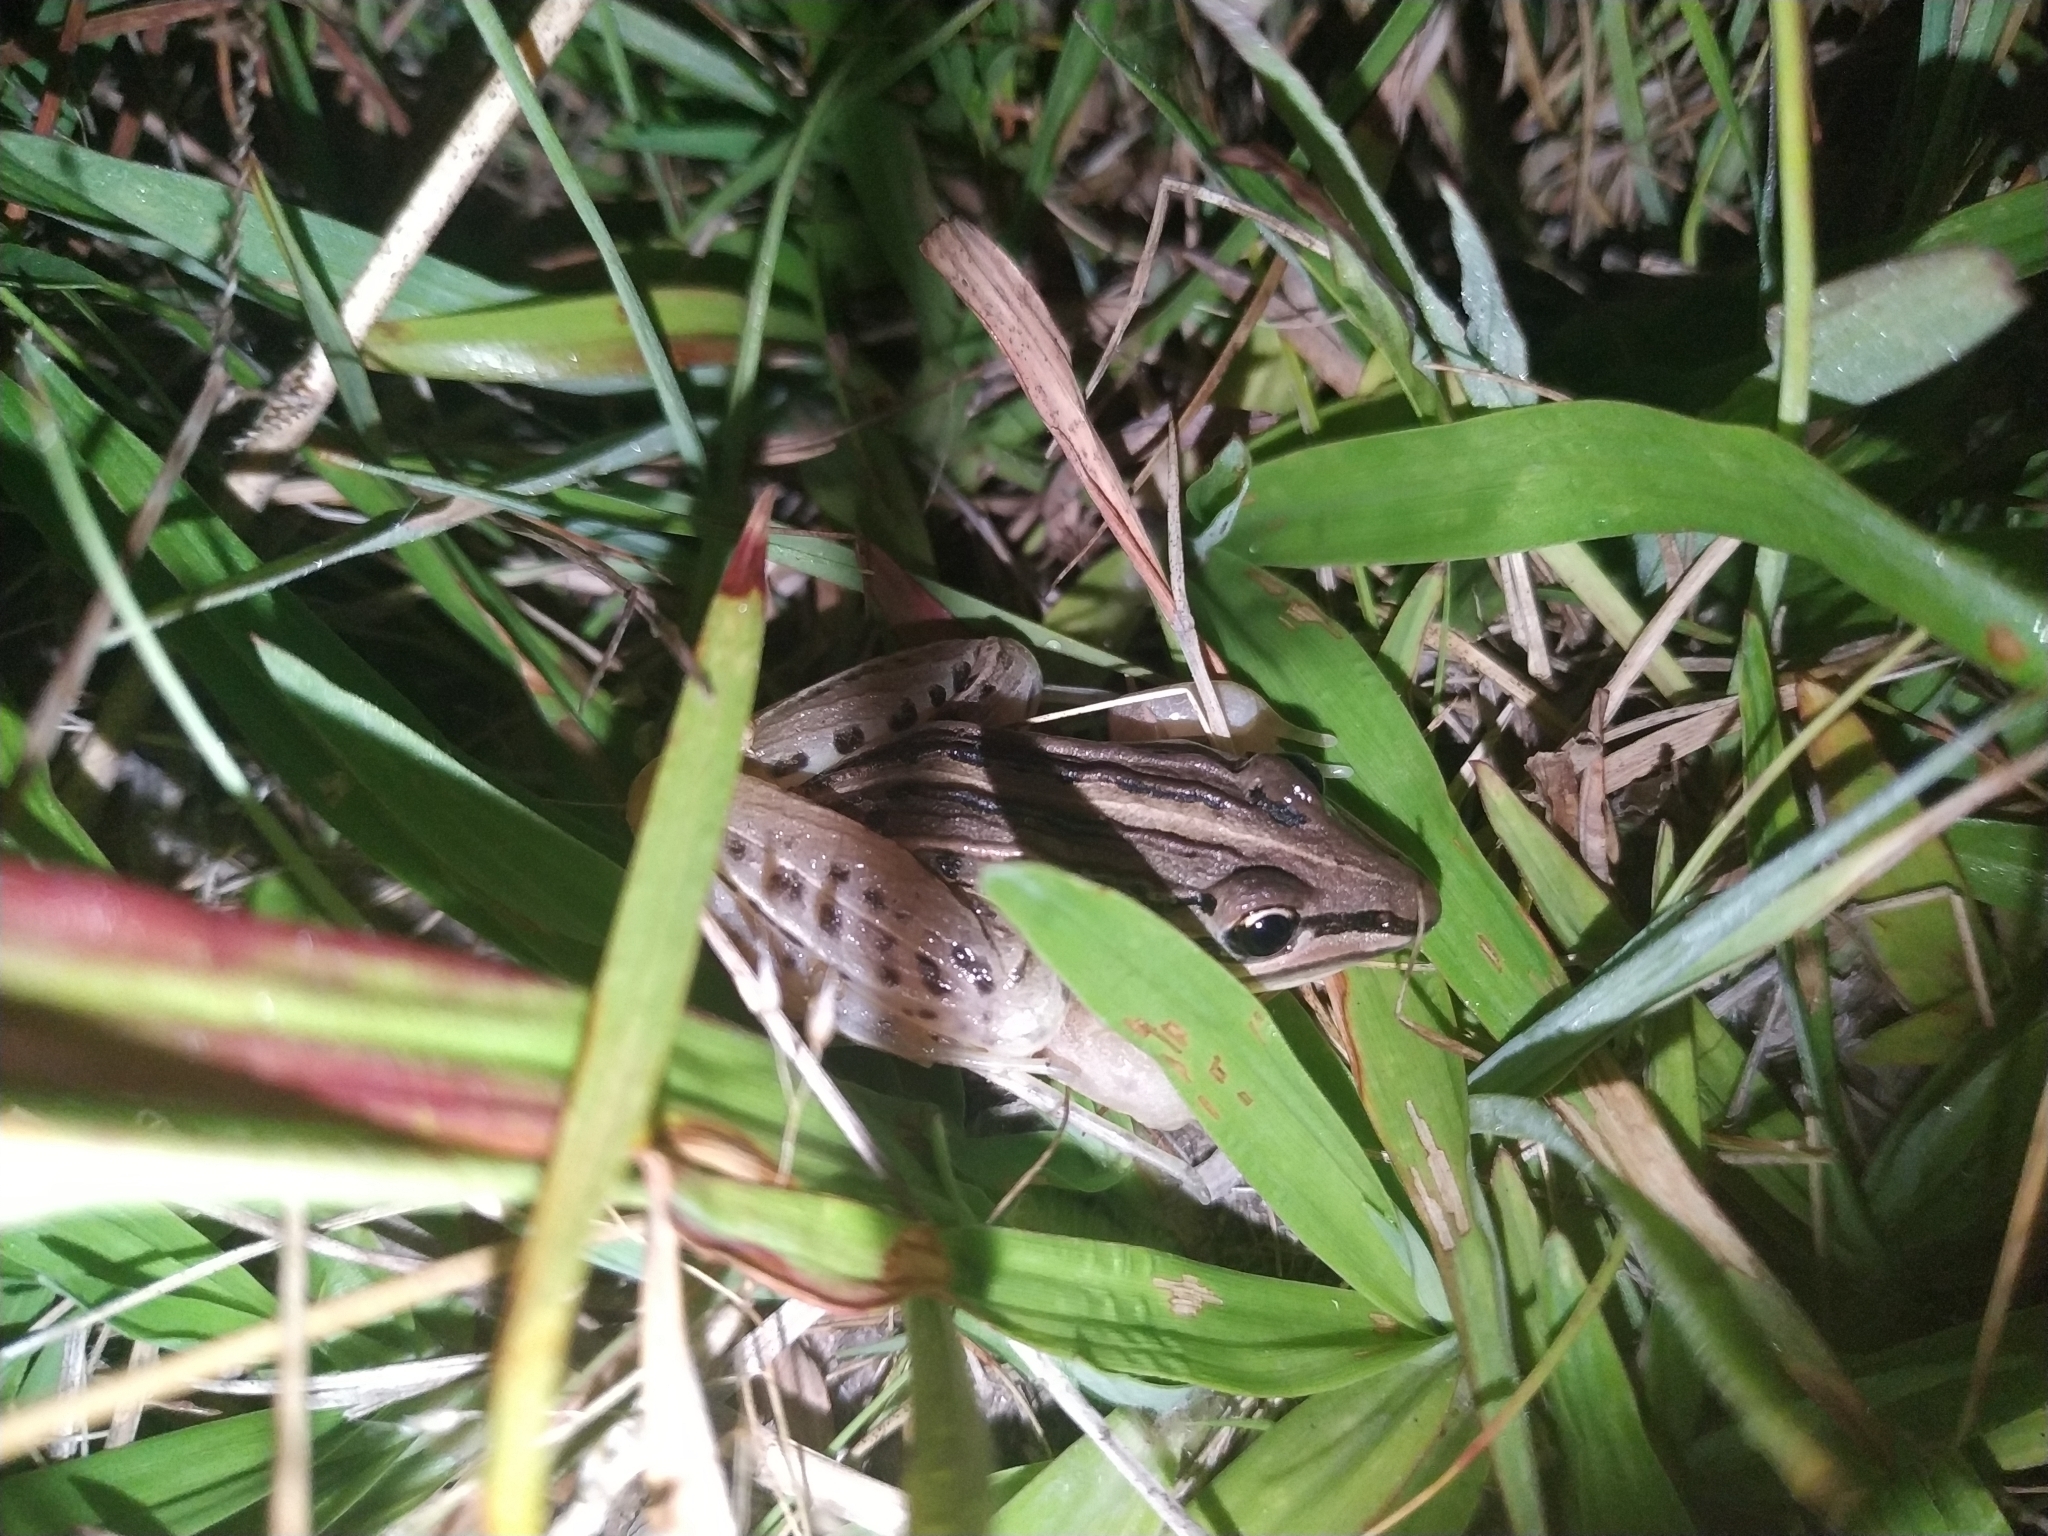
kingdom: Animalia
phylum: Chordata
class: Amphibia
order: Anura
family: Leptodactylidae
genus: Leptodactylus
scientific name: Leptodactylus gracilis
